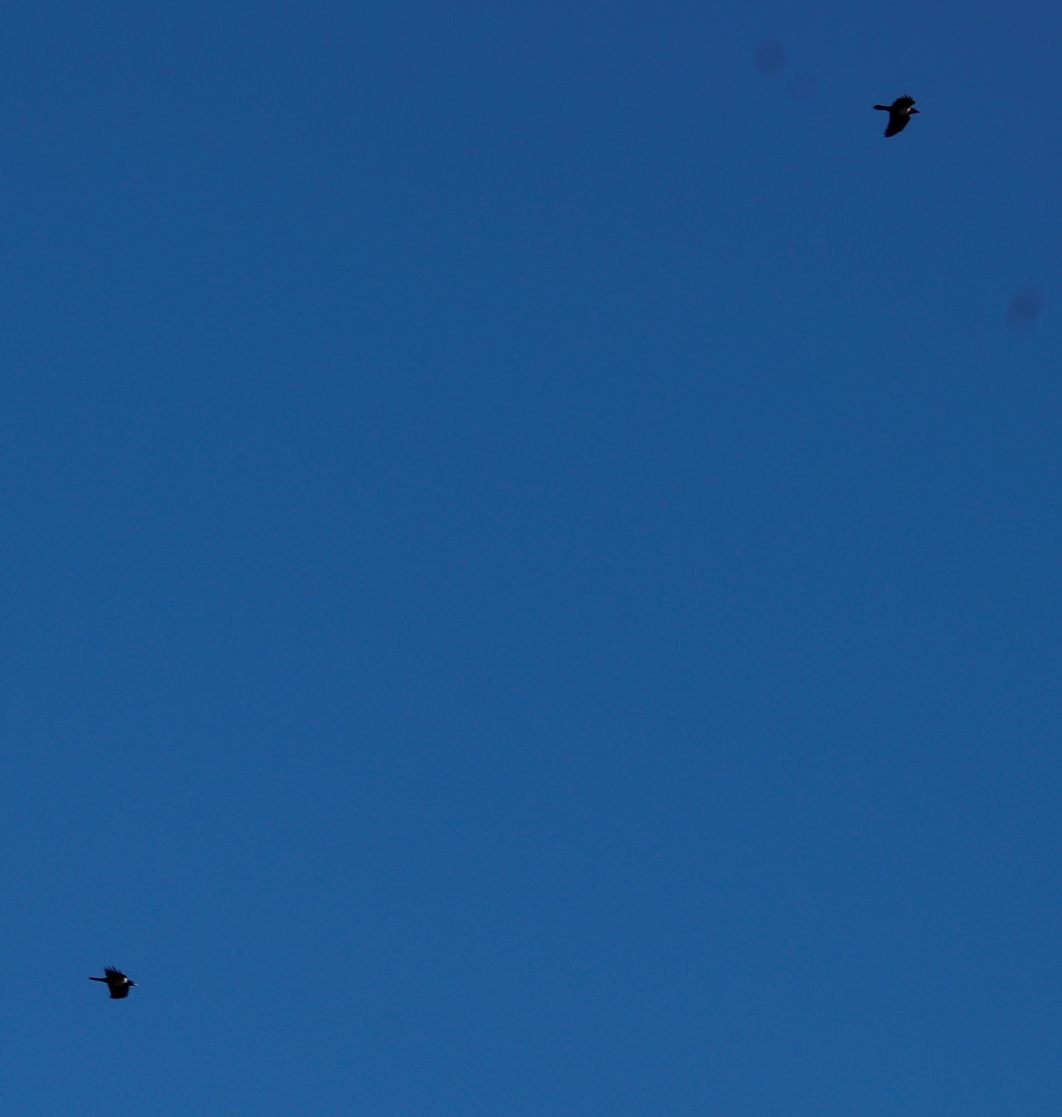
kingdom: Animalia
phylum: Chordata
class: Aves
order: Passeriformes
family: Corvidae
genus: Corvus
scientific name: Corvus albus
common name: Pied crow
